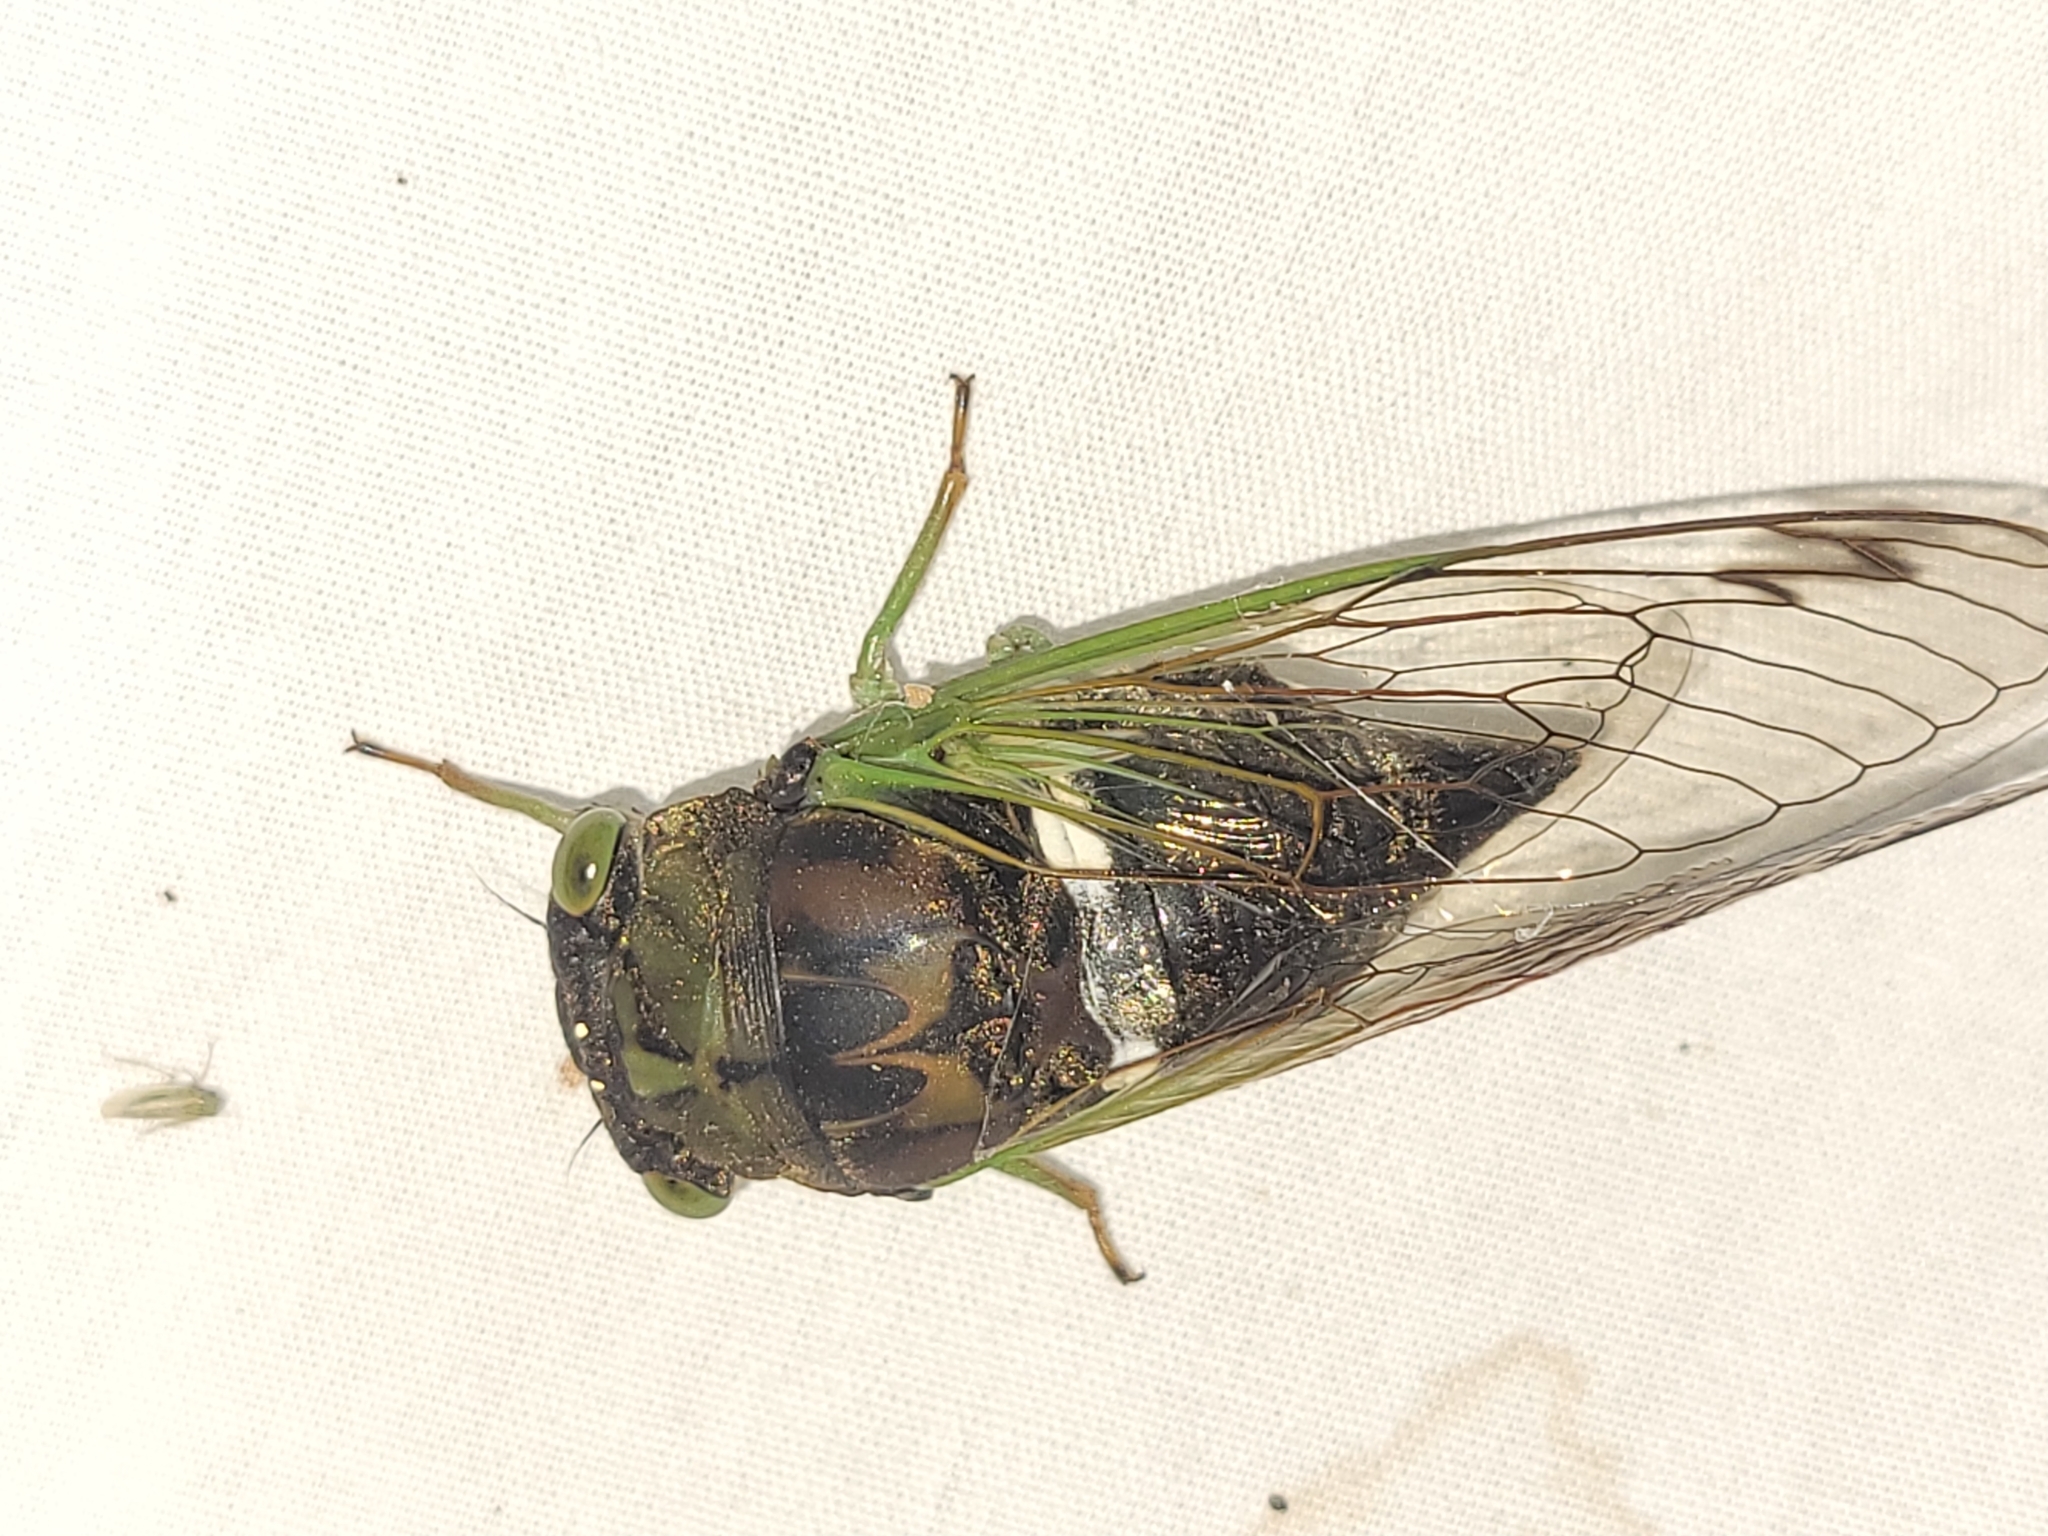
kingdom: Animalia
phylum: Arthropoda
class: Insecta
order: Hemiptera
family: Cicadidae
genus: Neotibicen
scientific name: Neotibicen tibicen
